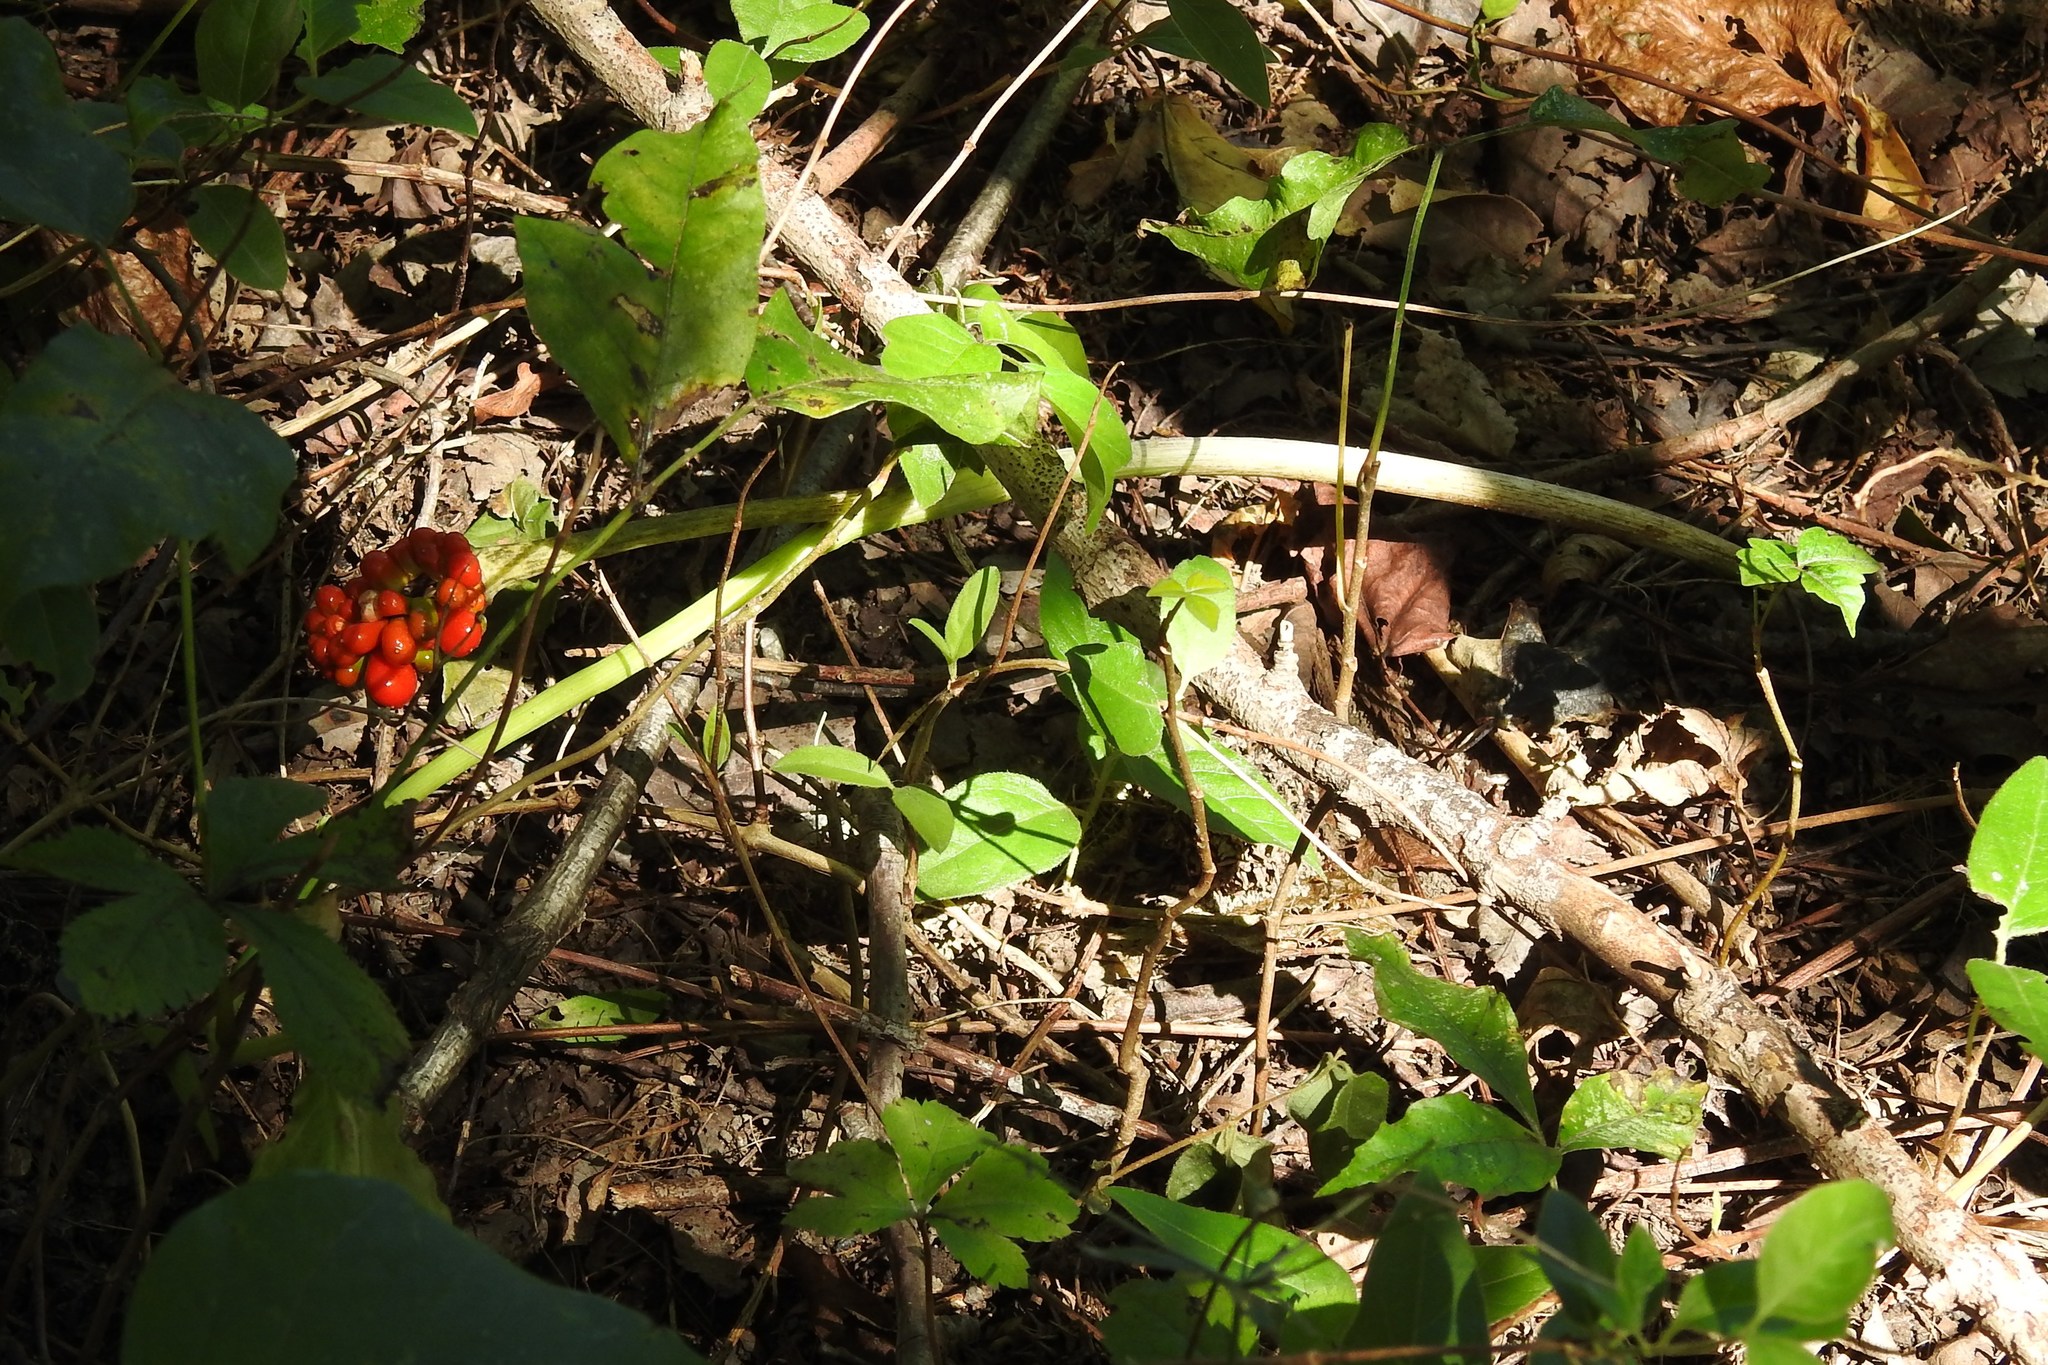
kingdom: Plantae
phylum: Tracheophyta
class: Liliopsida
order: Alismatales
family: Araceae
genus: Arisaema
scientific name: Arisaema triphyllum
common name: Jack-in-the-pulpit
